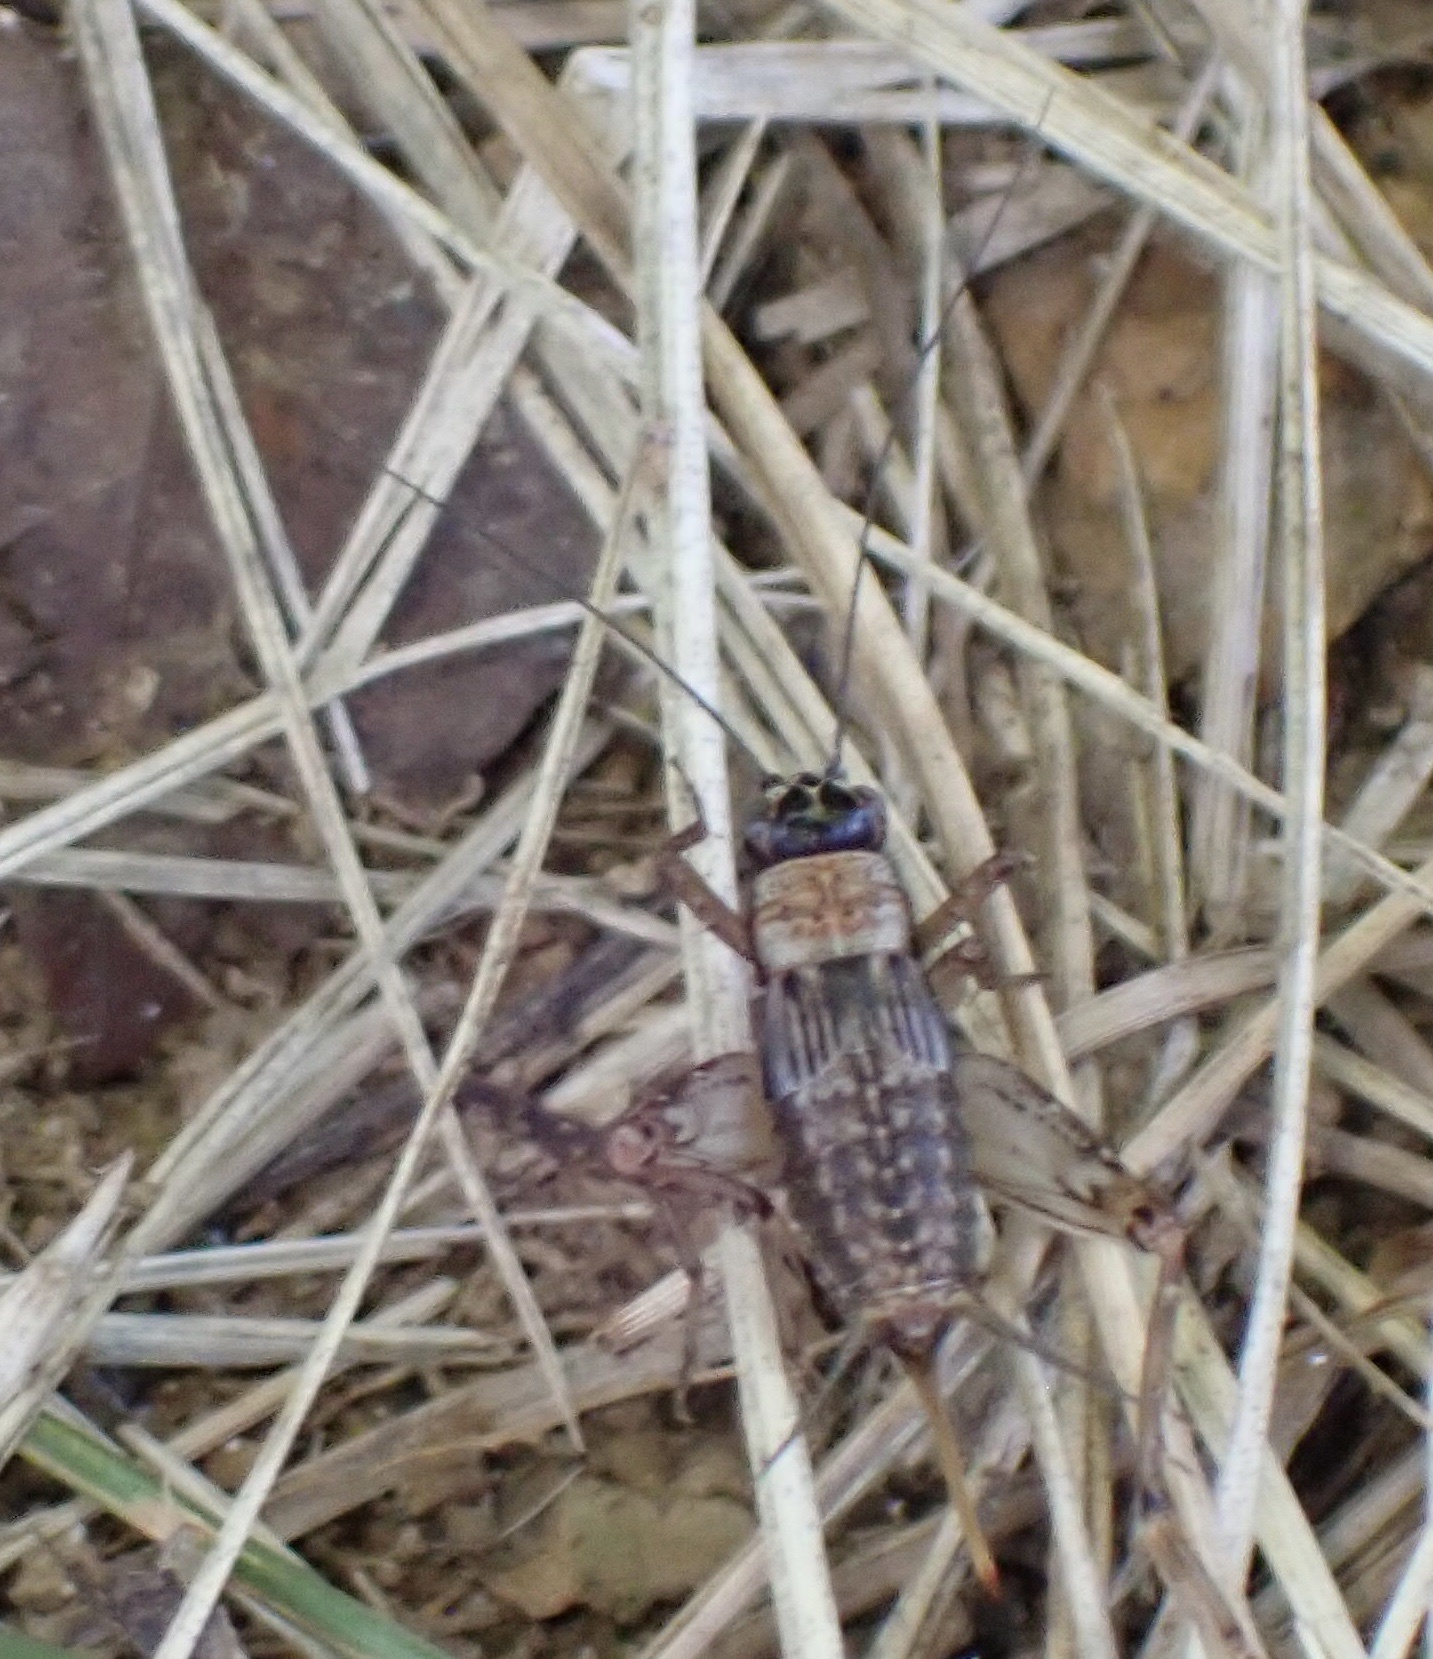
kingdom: Animalia
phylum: Arthropoda
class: Insecta
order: Orthoptera
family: Trigonidiidae
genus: Nemobius
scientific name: Nemobius sylvestris
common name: Wood-cricket
